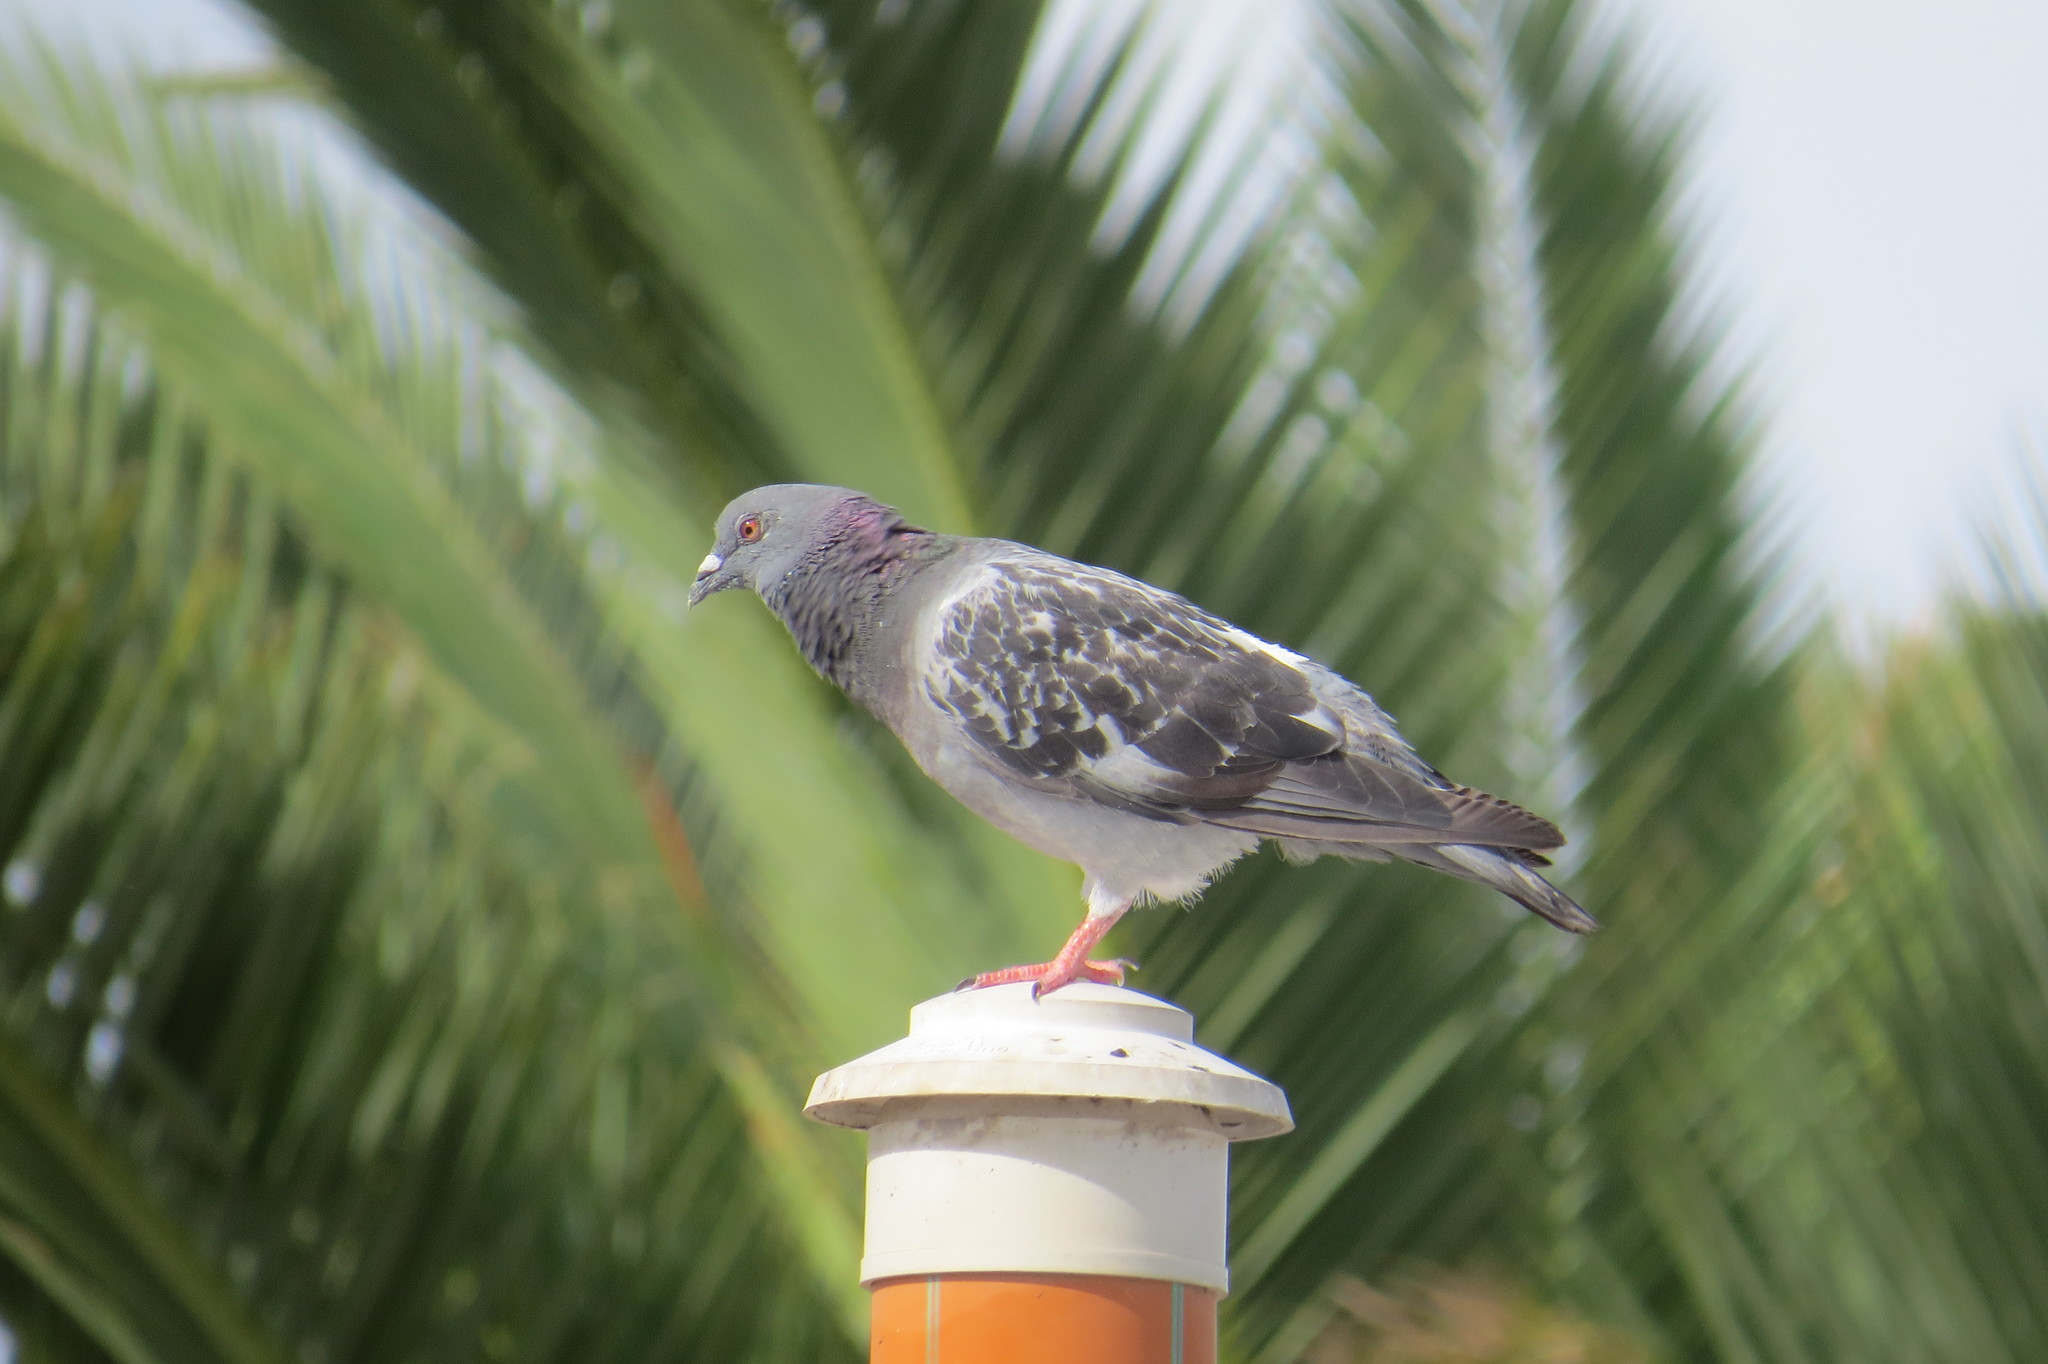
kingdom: Animalia
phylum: Chordata
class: Aves
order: Columbiformes
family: Columbidae
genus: Columba
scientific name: Columba livia
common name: Rock pigeon
